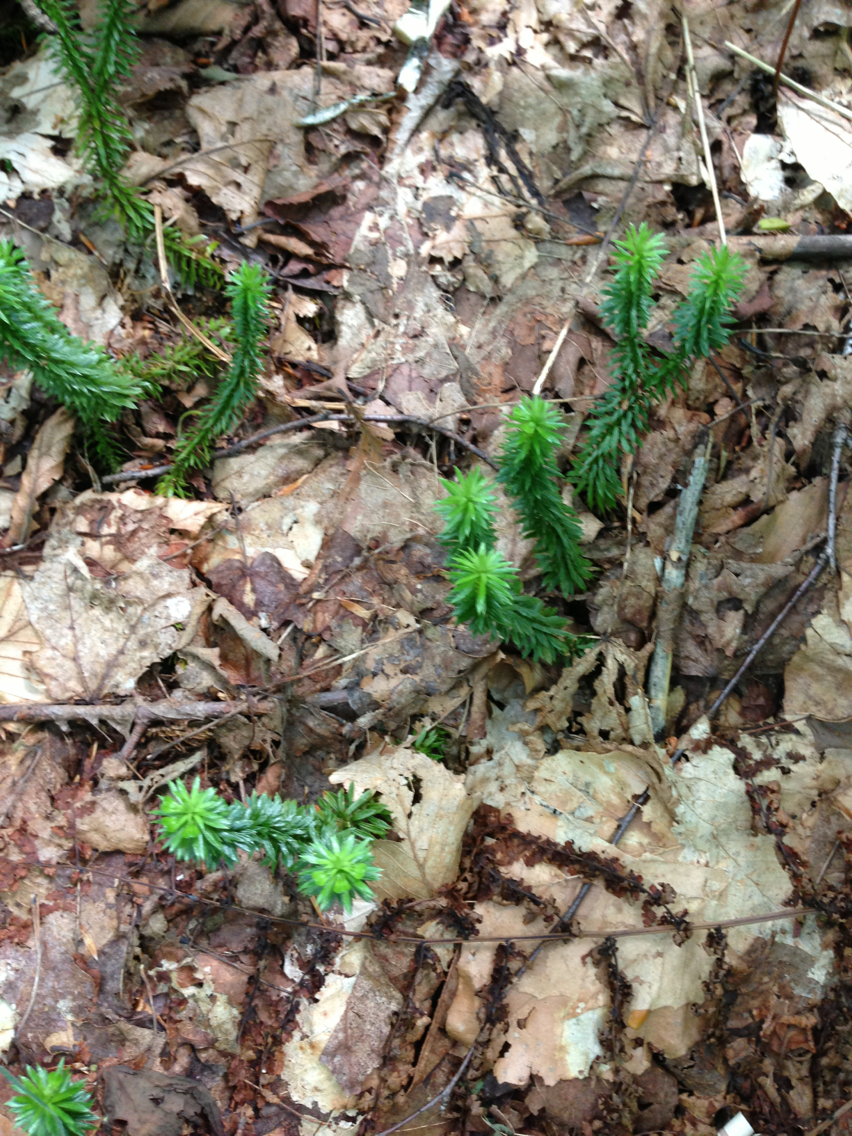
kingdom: Plantae
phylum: Tracheophyta
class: Lycopodiopsida
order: Lycopodiales
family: Lycopodiaceae
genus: Huperzia
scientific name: Huperzia lucidula
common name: Shining clubmoss
